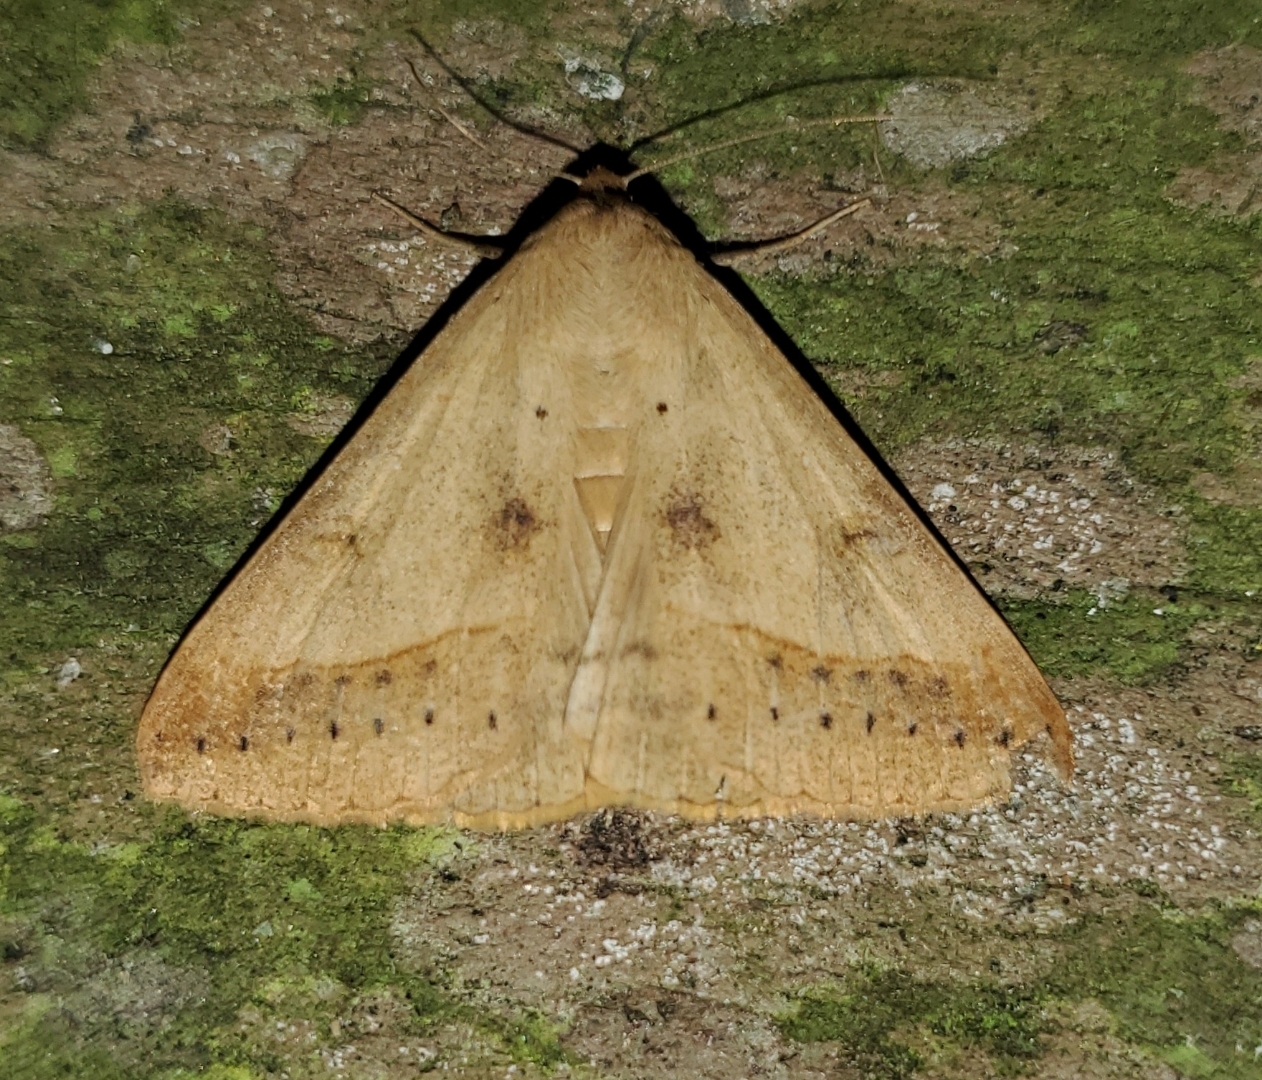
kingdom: Animalia
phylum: Arthropoda
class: Insecta
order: Lepidoptera
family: Erebidae
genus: Mocis
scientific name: Mocis marcida
